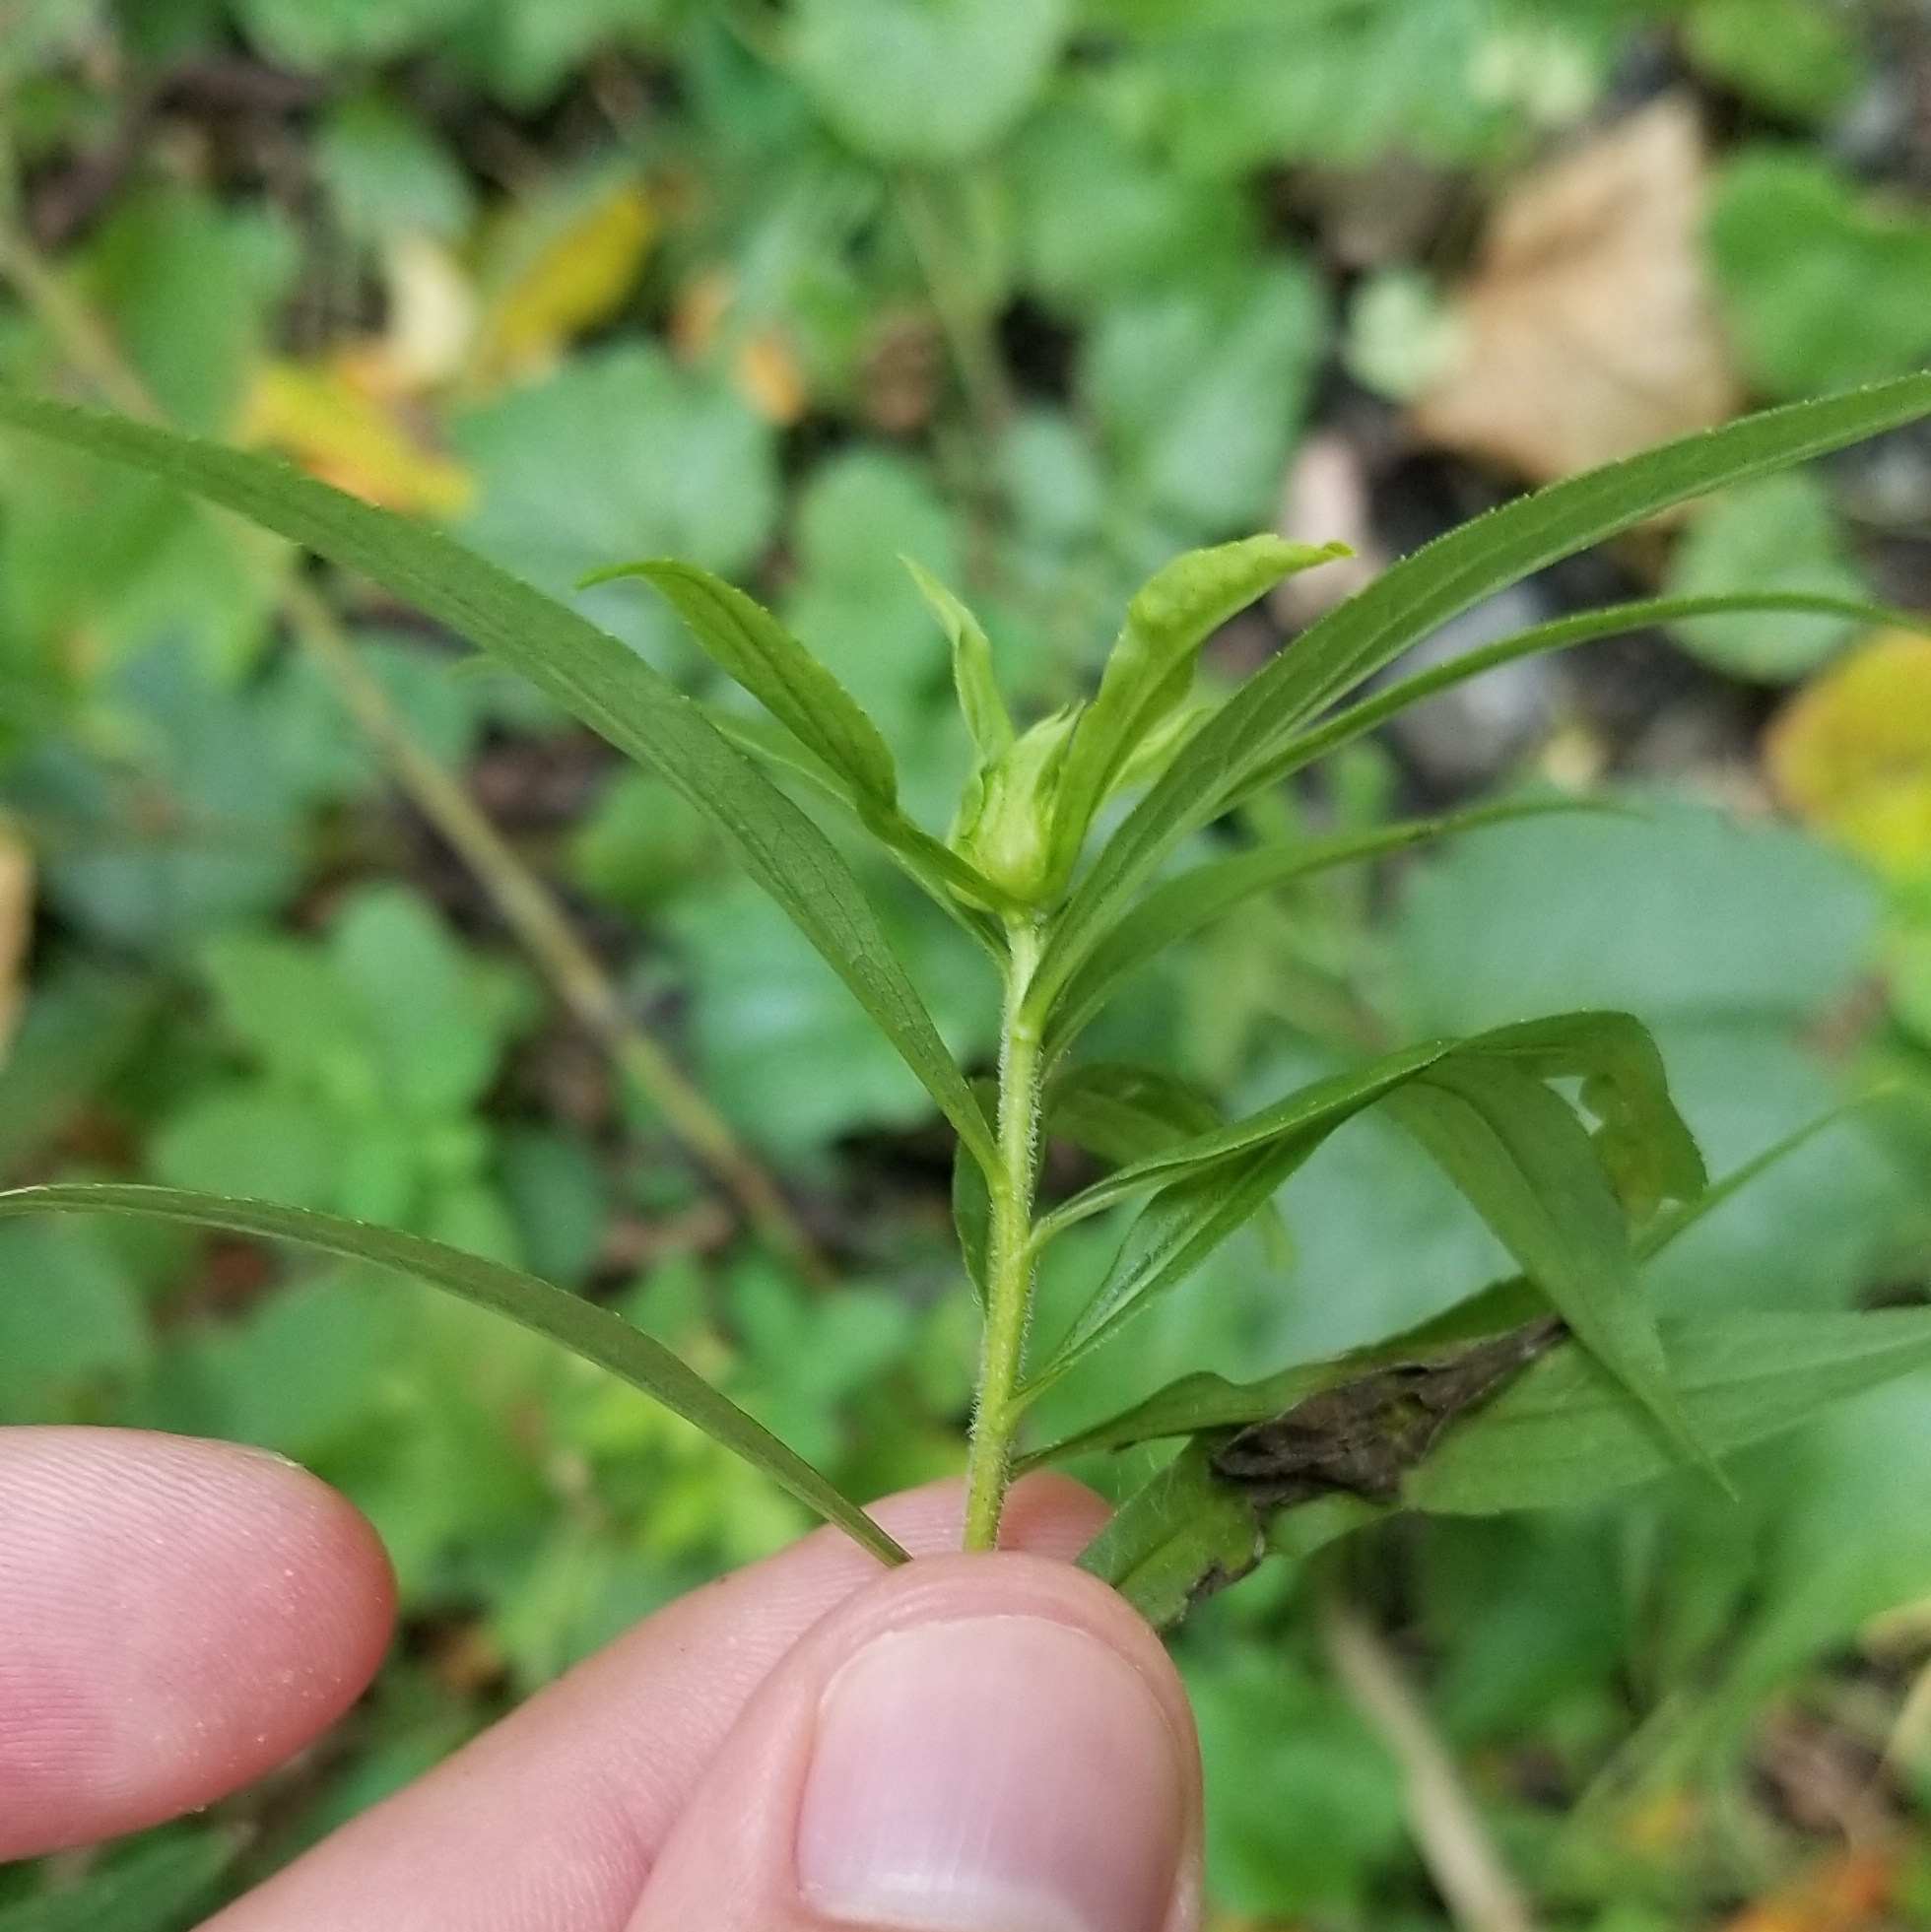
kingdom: Animalia
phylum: Arthropoda
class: Insecta
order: Diptera
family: Cecidomyiidae
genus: Dasineura
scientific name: Dasineura folliculi
